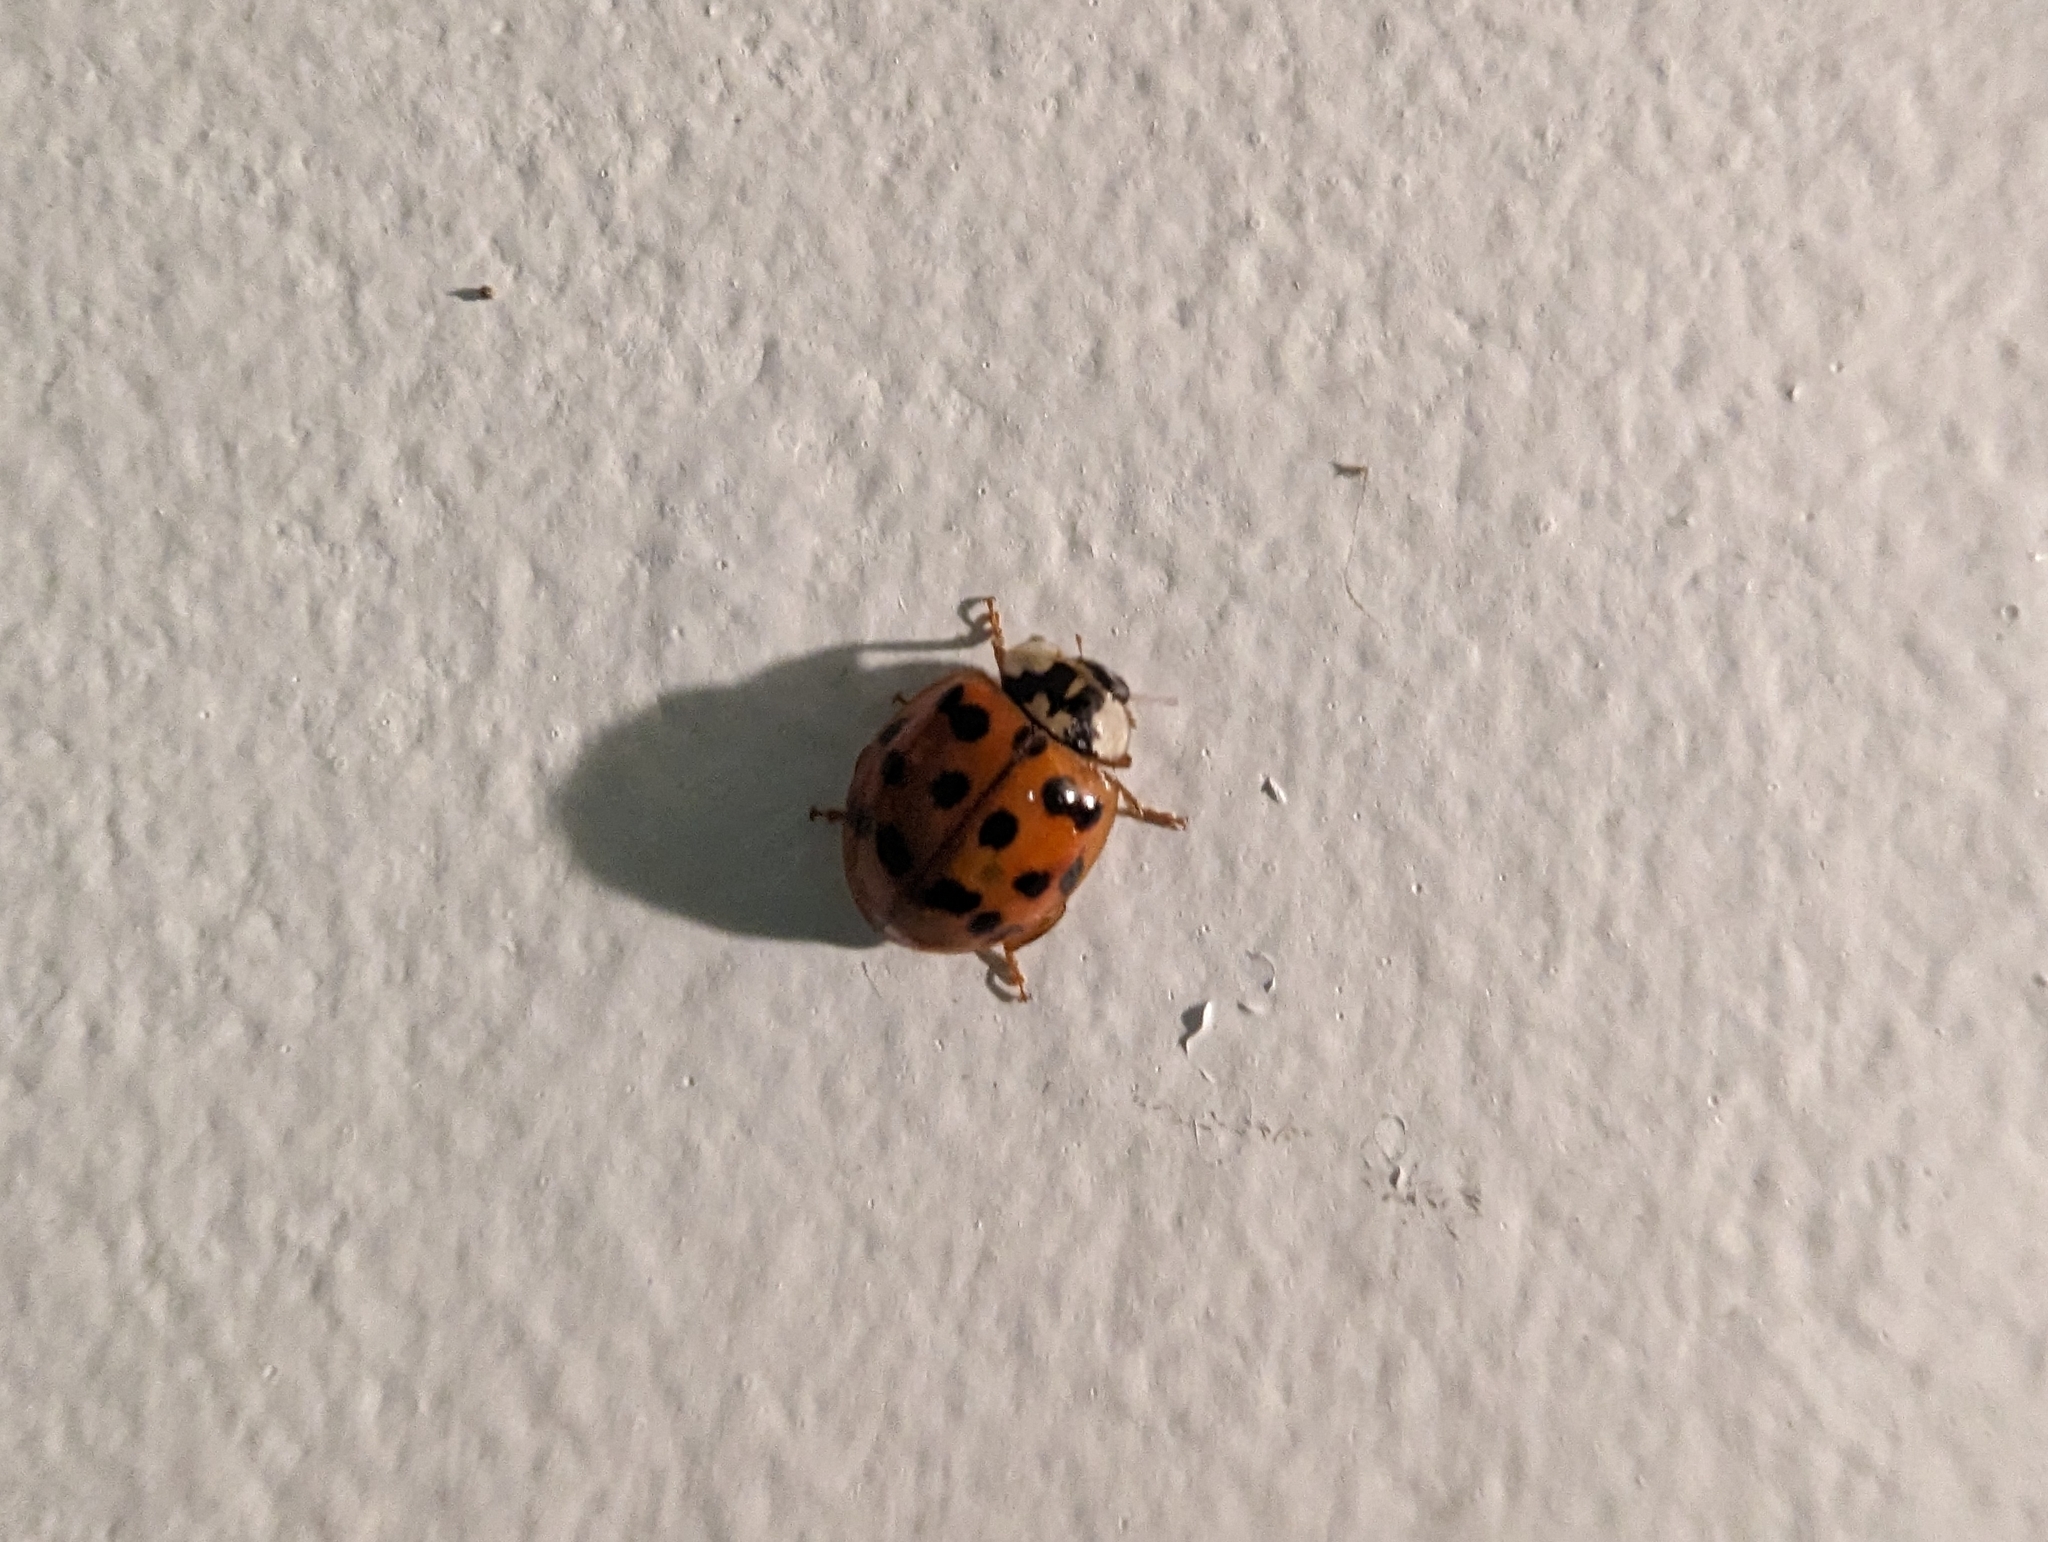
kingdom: Animalia
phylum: Arthropoda
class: Insecta
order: Coleoptera
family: Coccinellidae
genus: Harmonia
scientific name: Harmonia axyridis
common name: Harlequin ladybird
